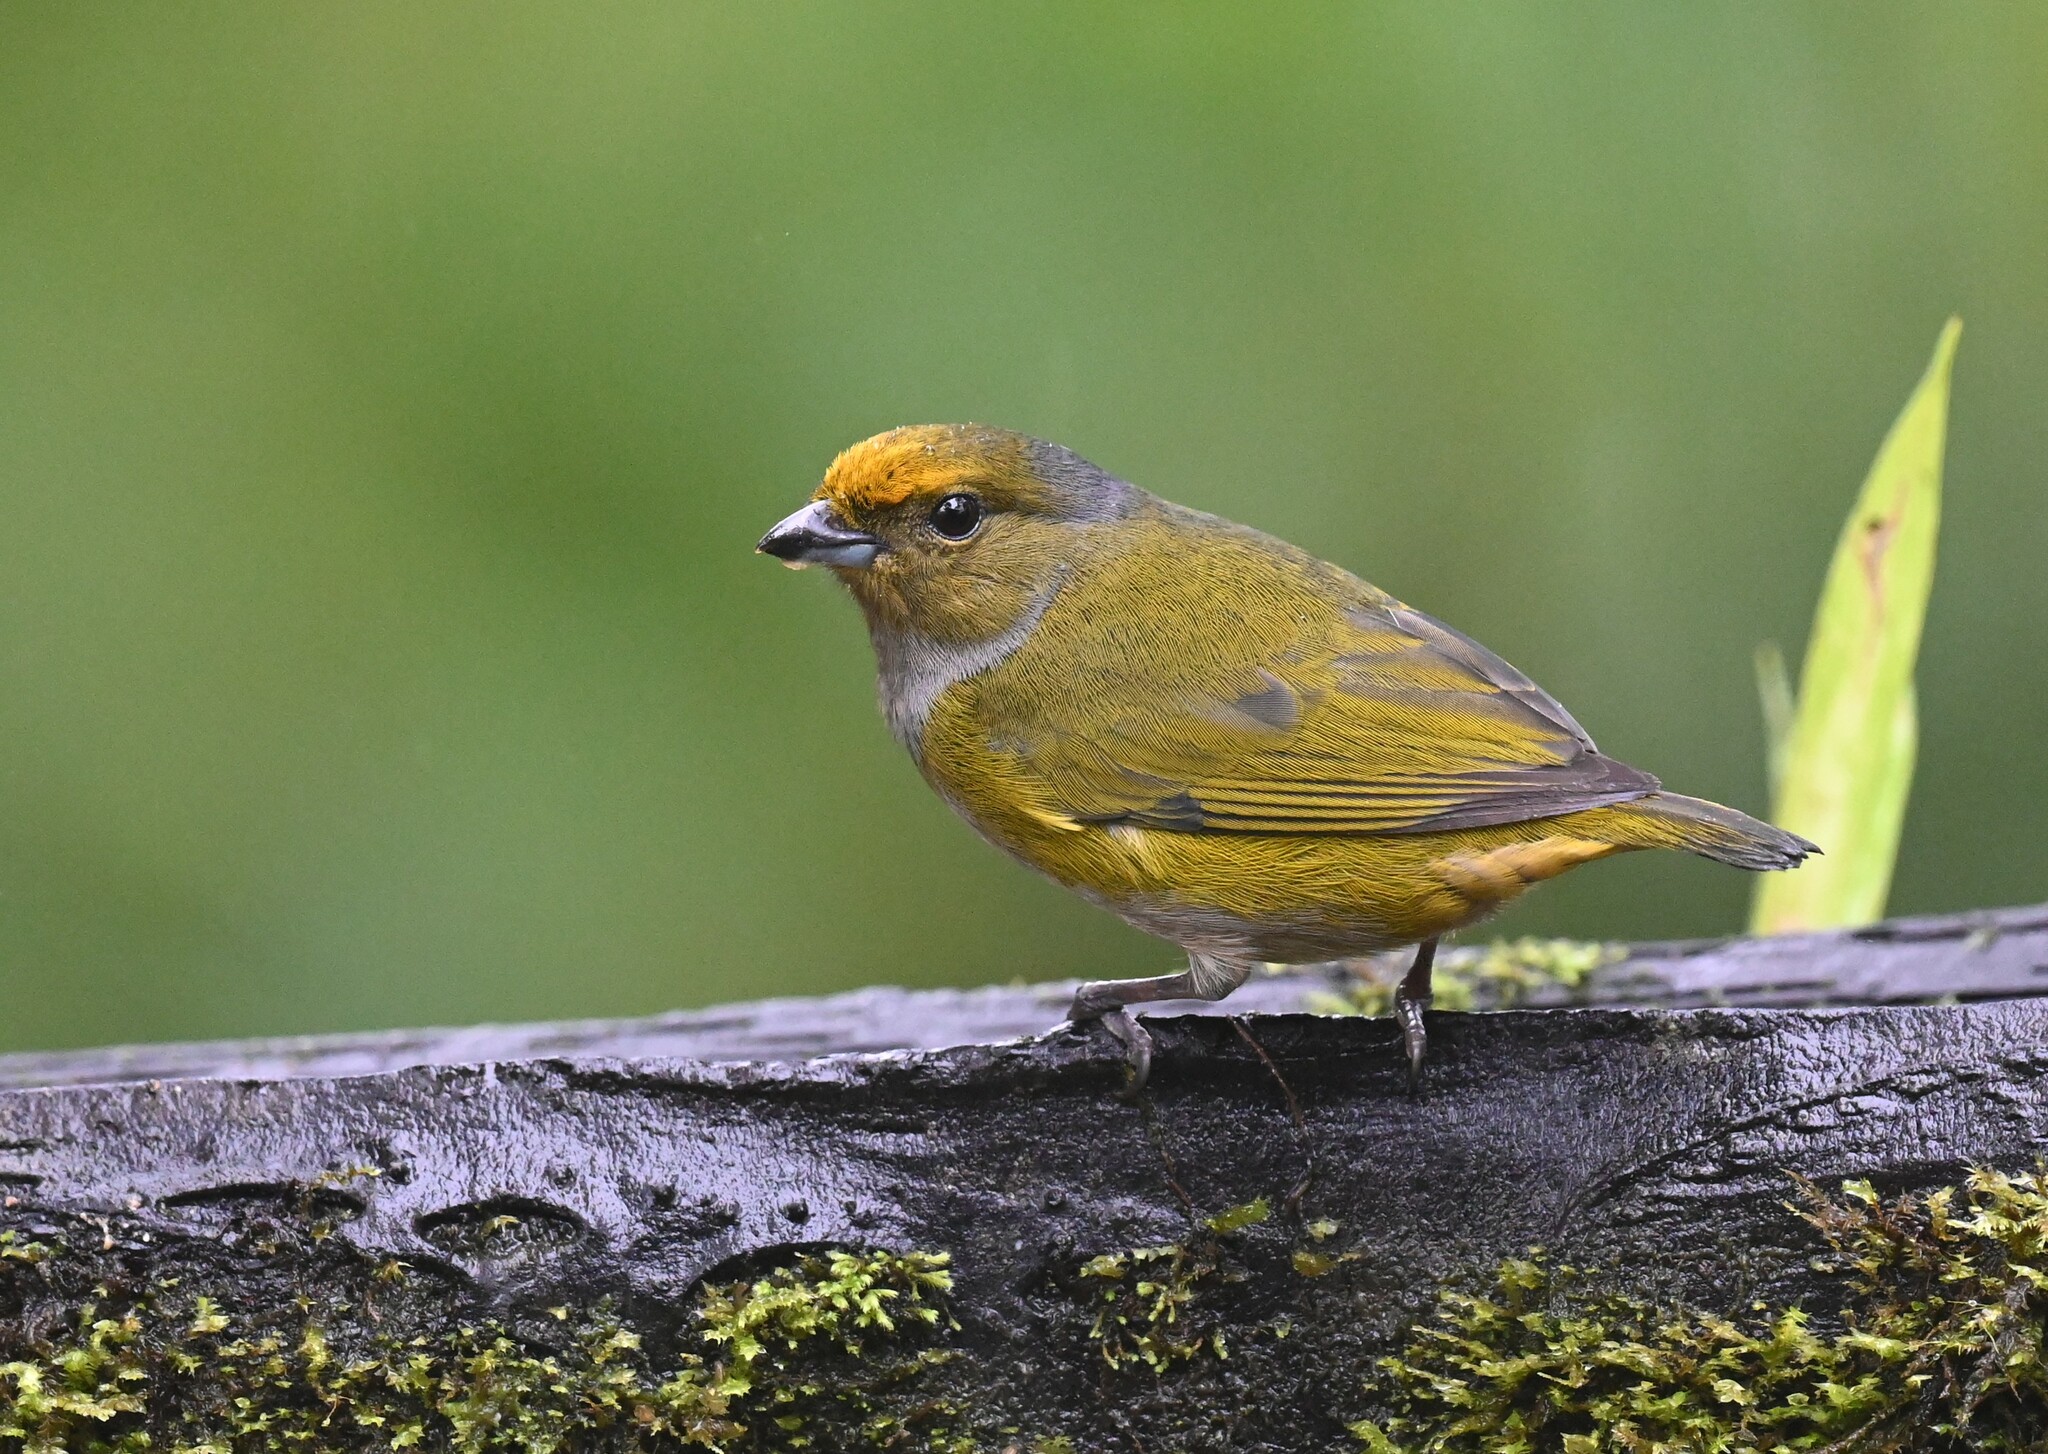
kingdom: Animalia
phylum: Chordata
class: Aves
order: Passeriformes
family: Fringillidae
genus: Euphonia
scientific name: Euphonia xanthogaster
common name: Orange-bellied euphonia
